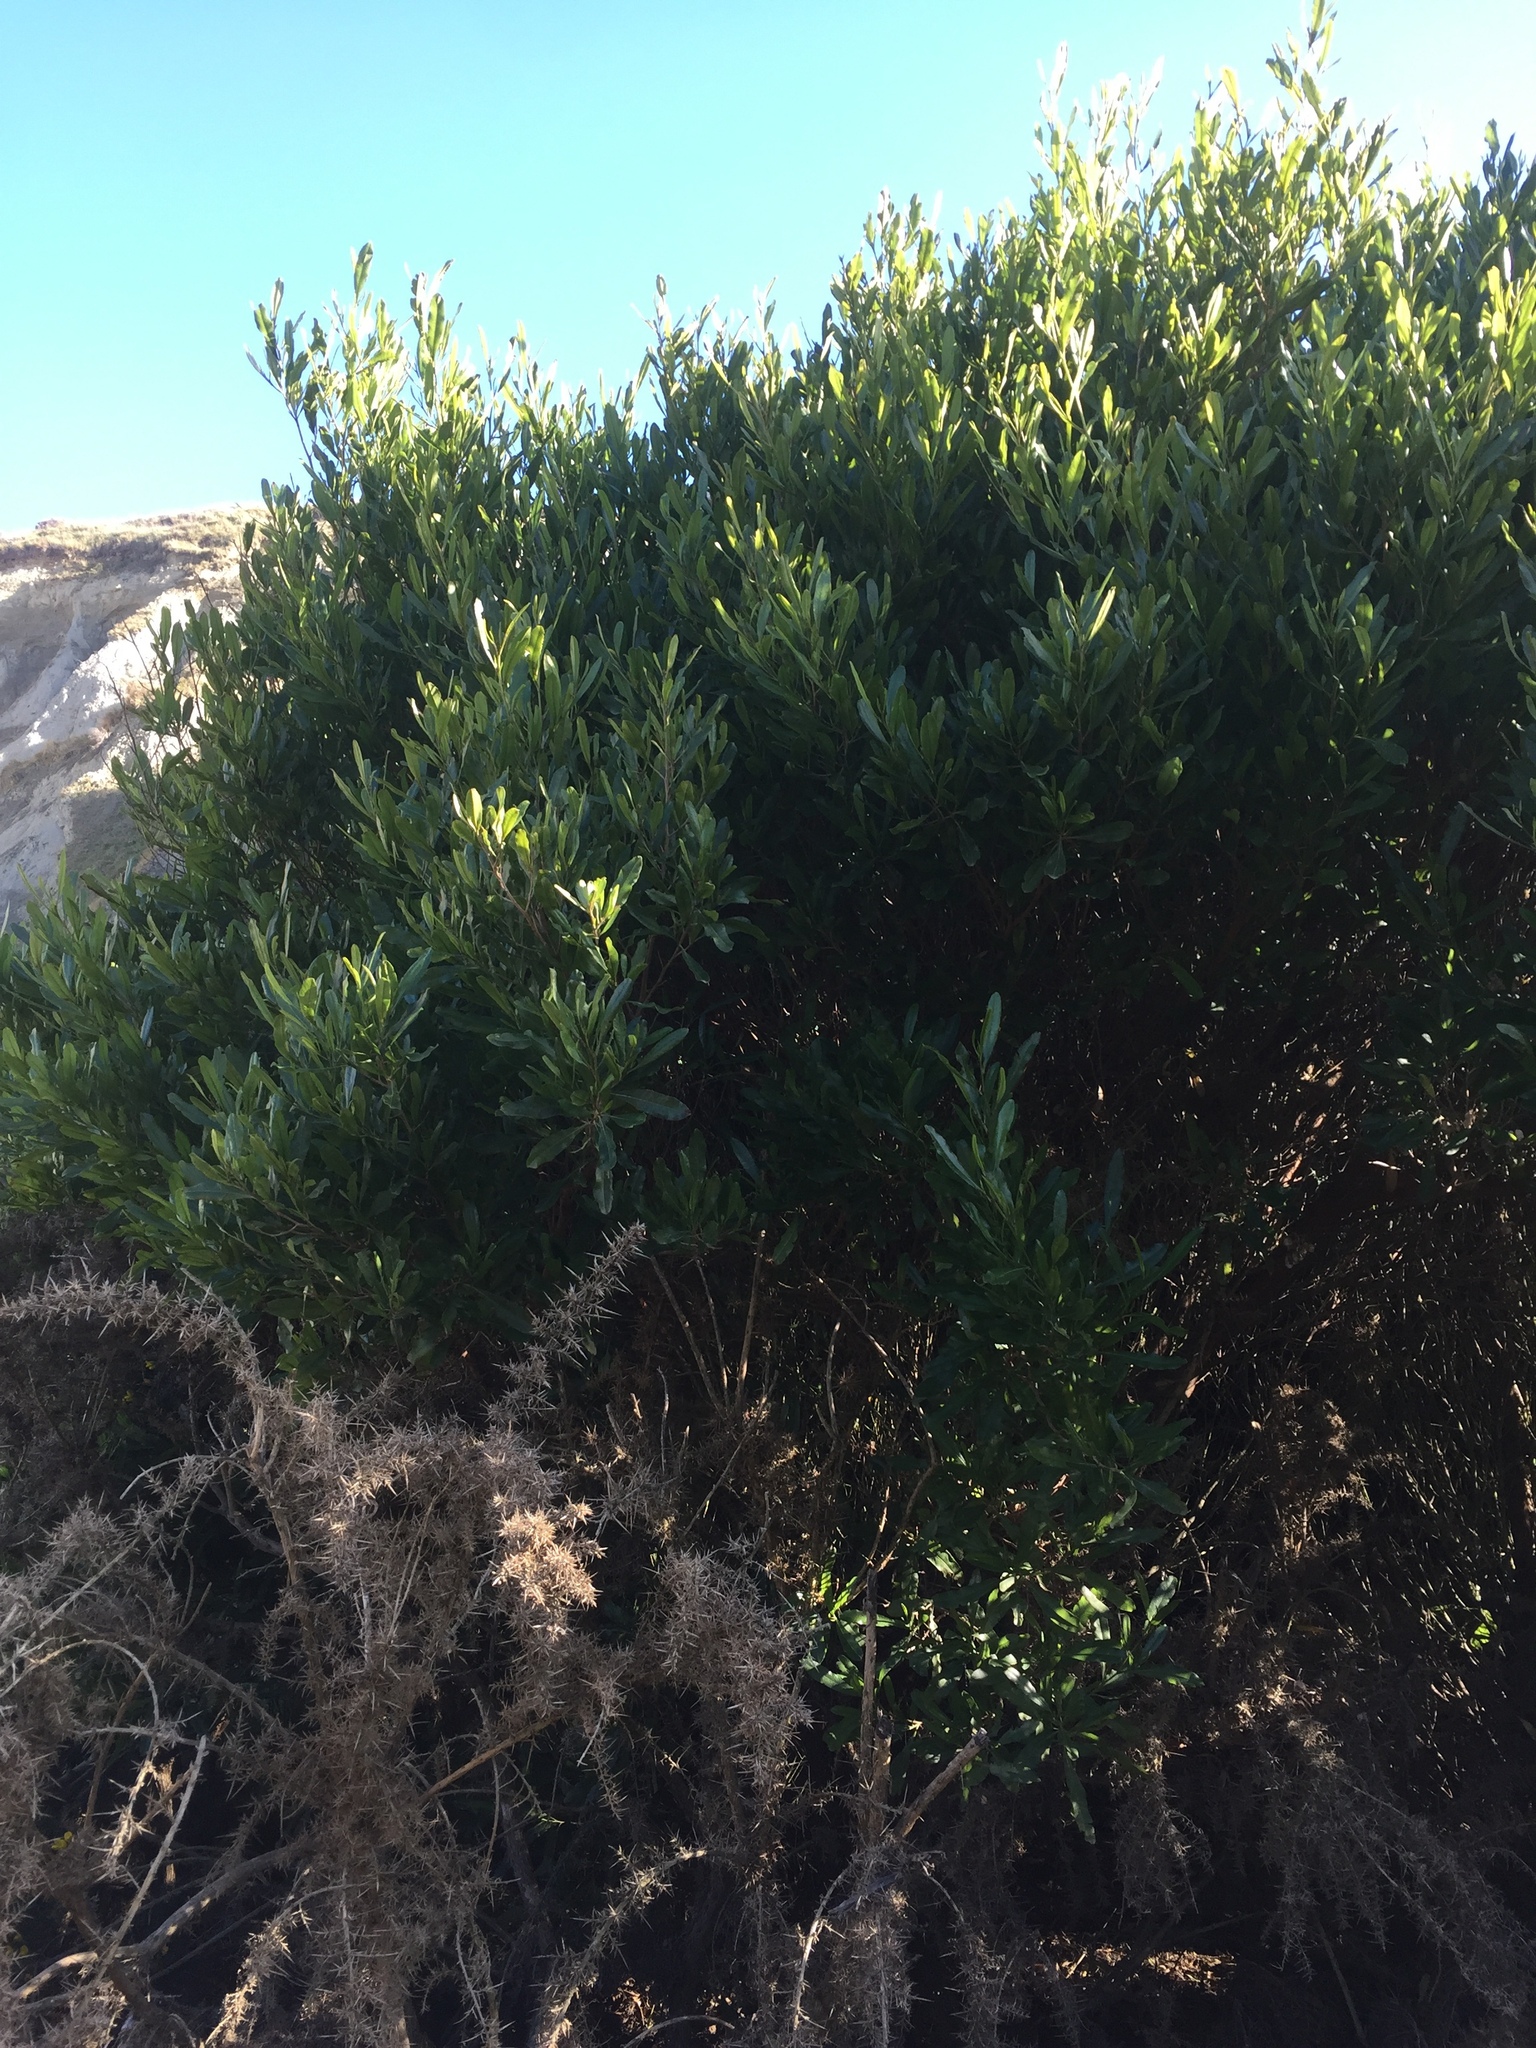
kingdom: Plantae
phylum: Tracheophyta
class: Magnoliopsida
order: Sapindales
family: Sapindaceae
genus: Dodonaea
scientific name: Dodonaea viscosa
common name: Hopbush
